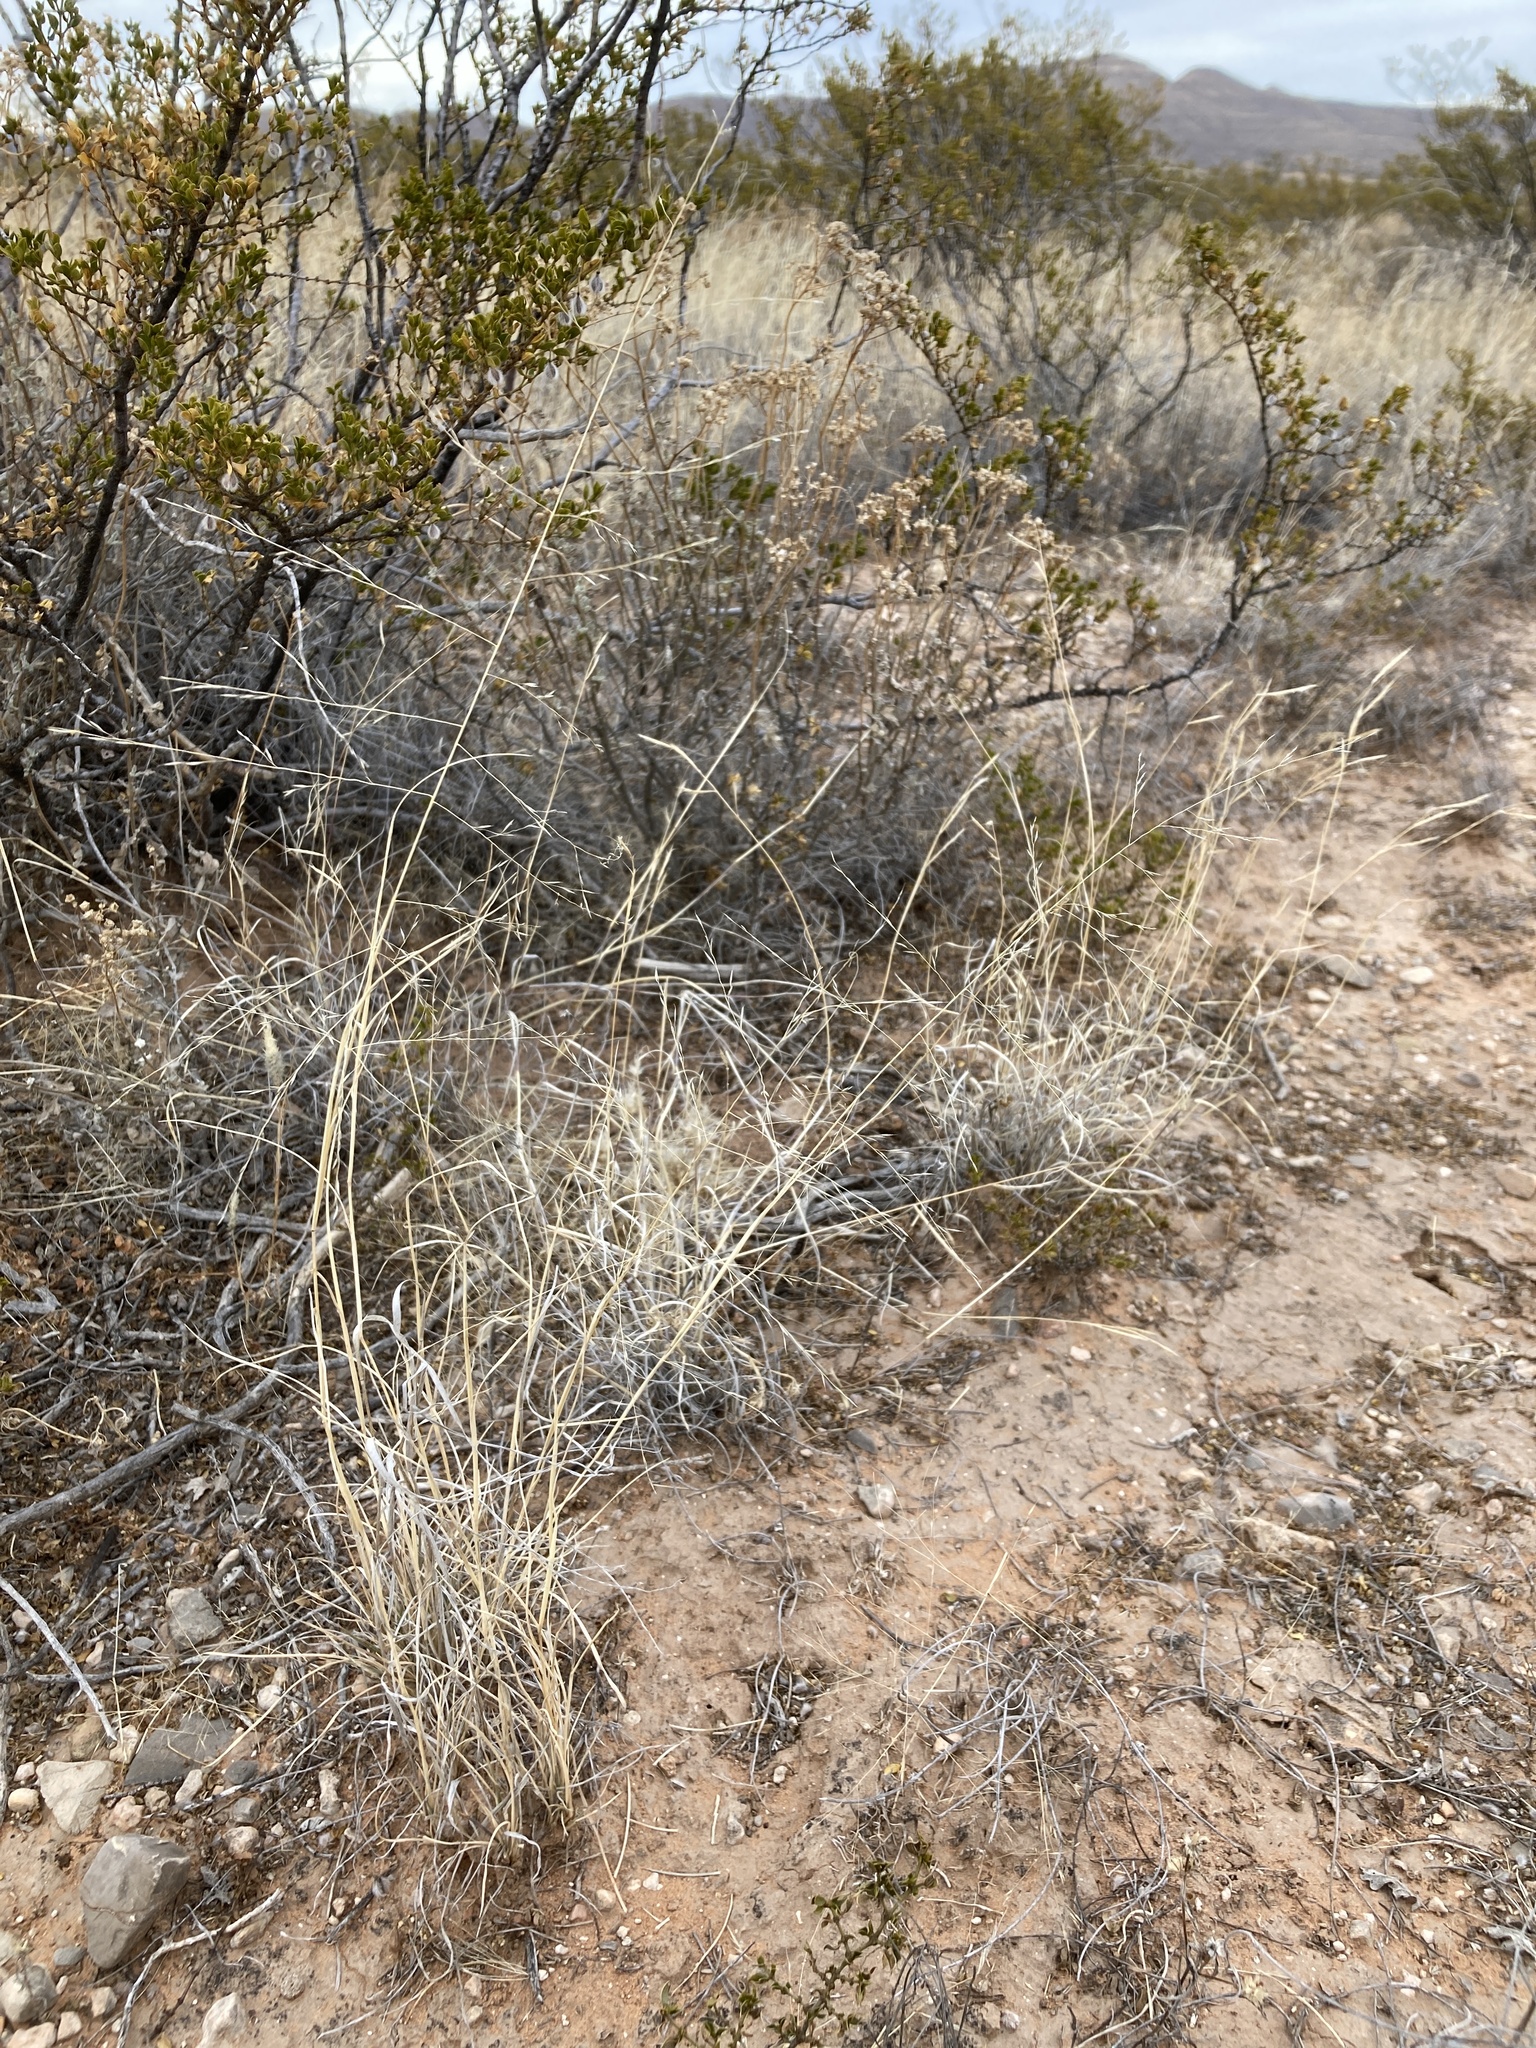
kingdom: Plantae
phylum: Tracheophyta
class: Liliopsida
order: Poales
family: Poaceae
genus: Muhlenbergia
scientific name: Muhlenbergia arenicola
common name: Sand muhly
